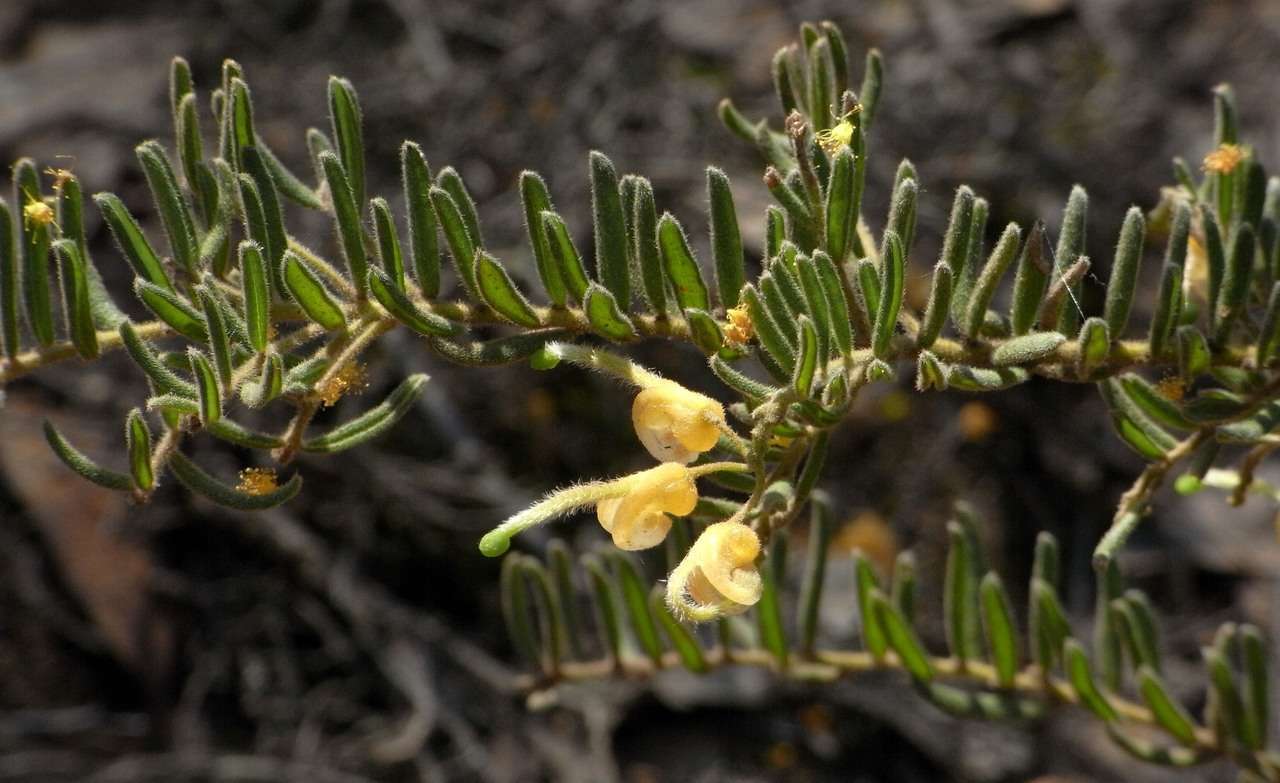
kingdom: Plantae
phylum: Tracheophyta
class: Magnoliopsida
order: Proteales
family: Proteaceae
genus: Grevillea
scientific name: Grevillea alpina
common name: Catclaws grevillea
